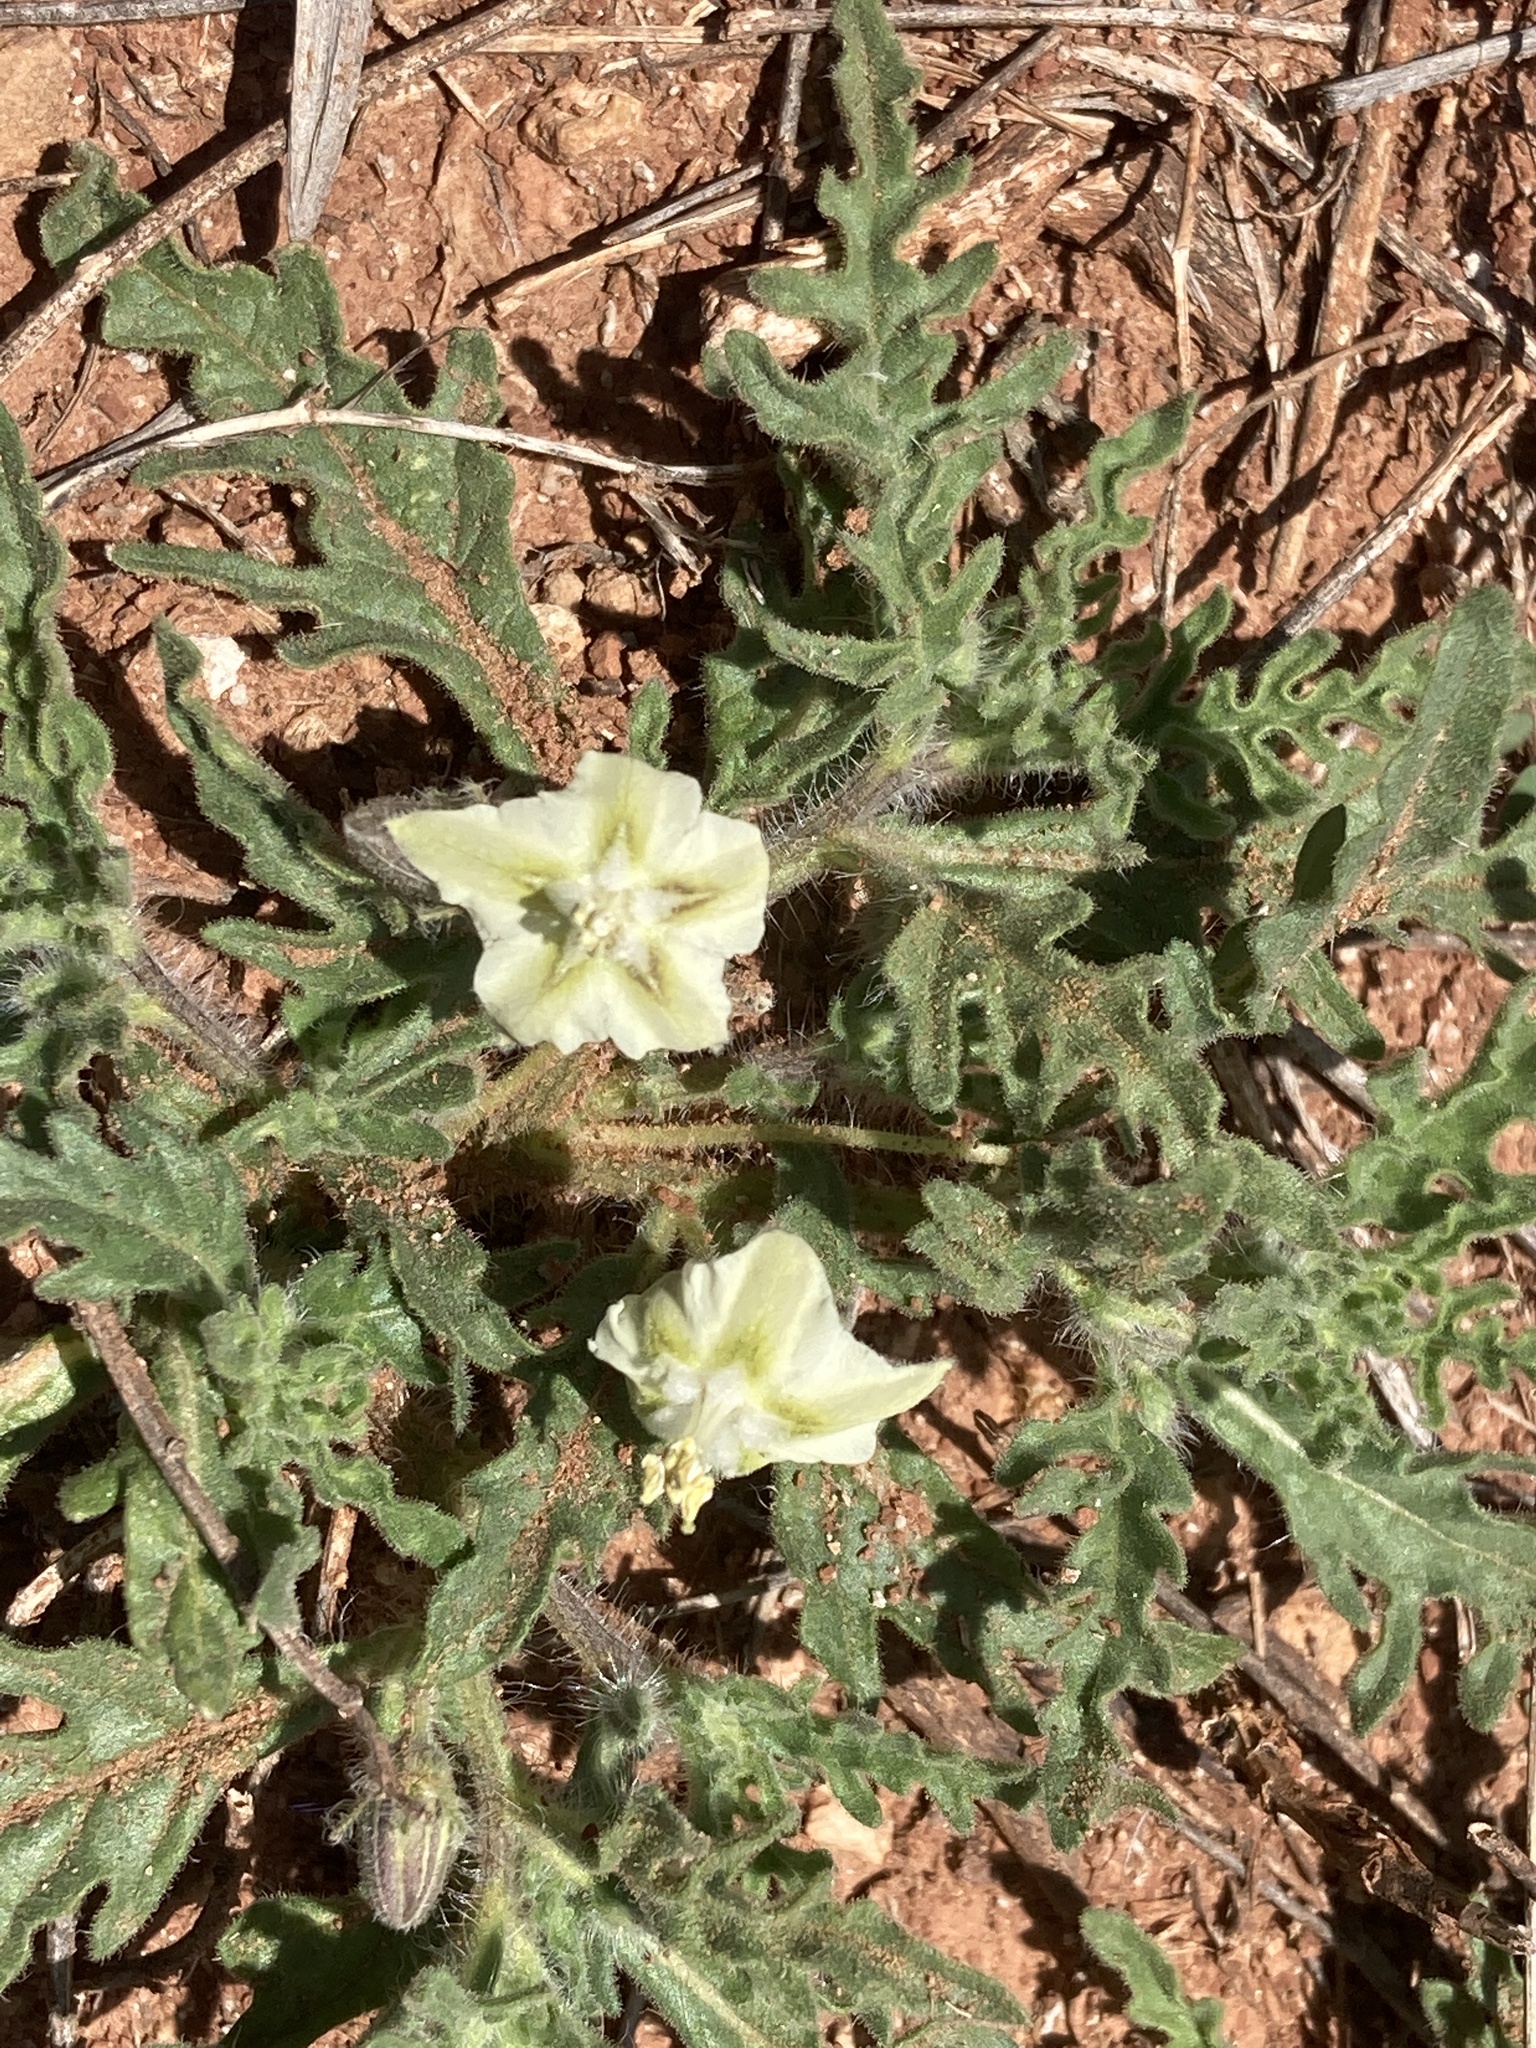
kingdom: Plantae
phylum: Tracheophyta
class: Magnoliopsida
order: Solanales
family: Solanaceae
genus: Chamaesaracha
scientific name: Chamaesaracha coniodes
